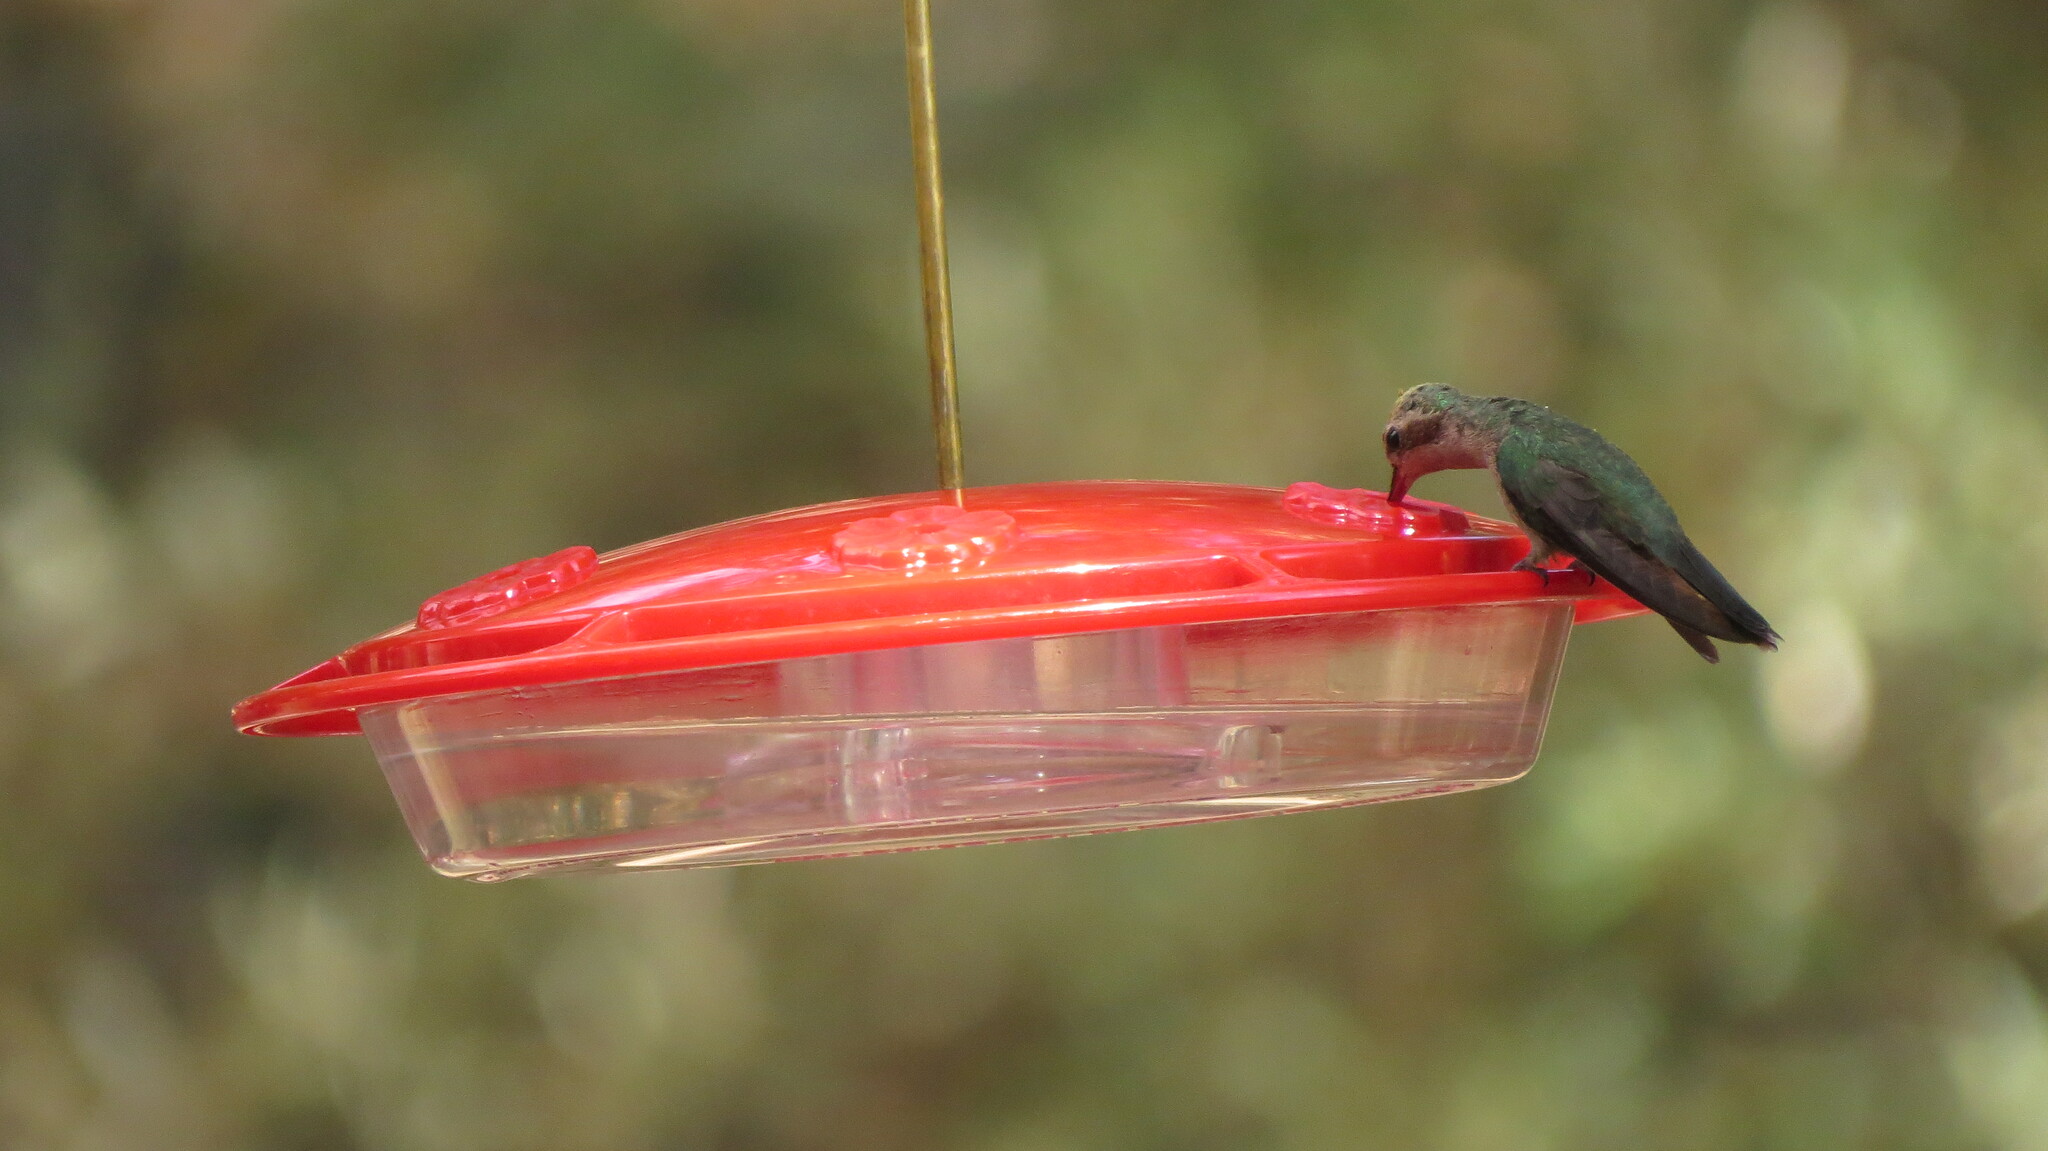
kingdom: Animalia
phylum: Chordata
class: Aves
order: Apodiformes
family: Trochilidae
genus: Cynanthus
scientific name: Cynanthus latirostris
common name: Broad-billed hummingbird
